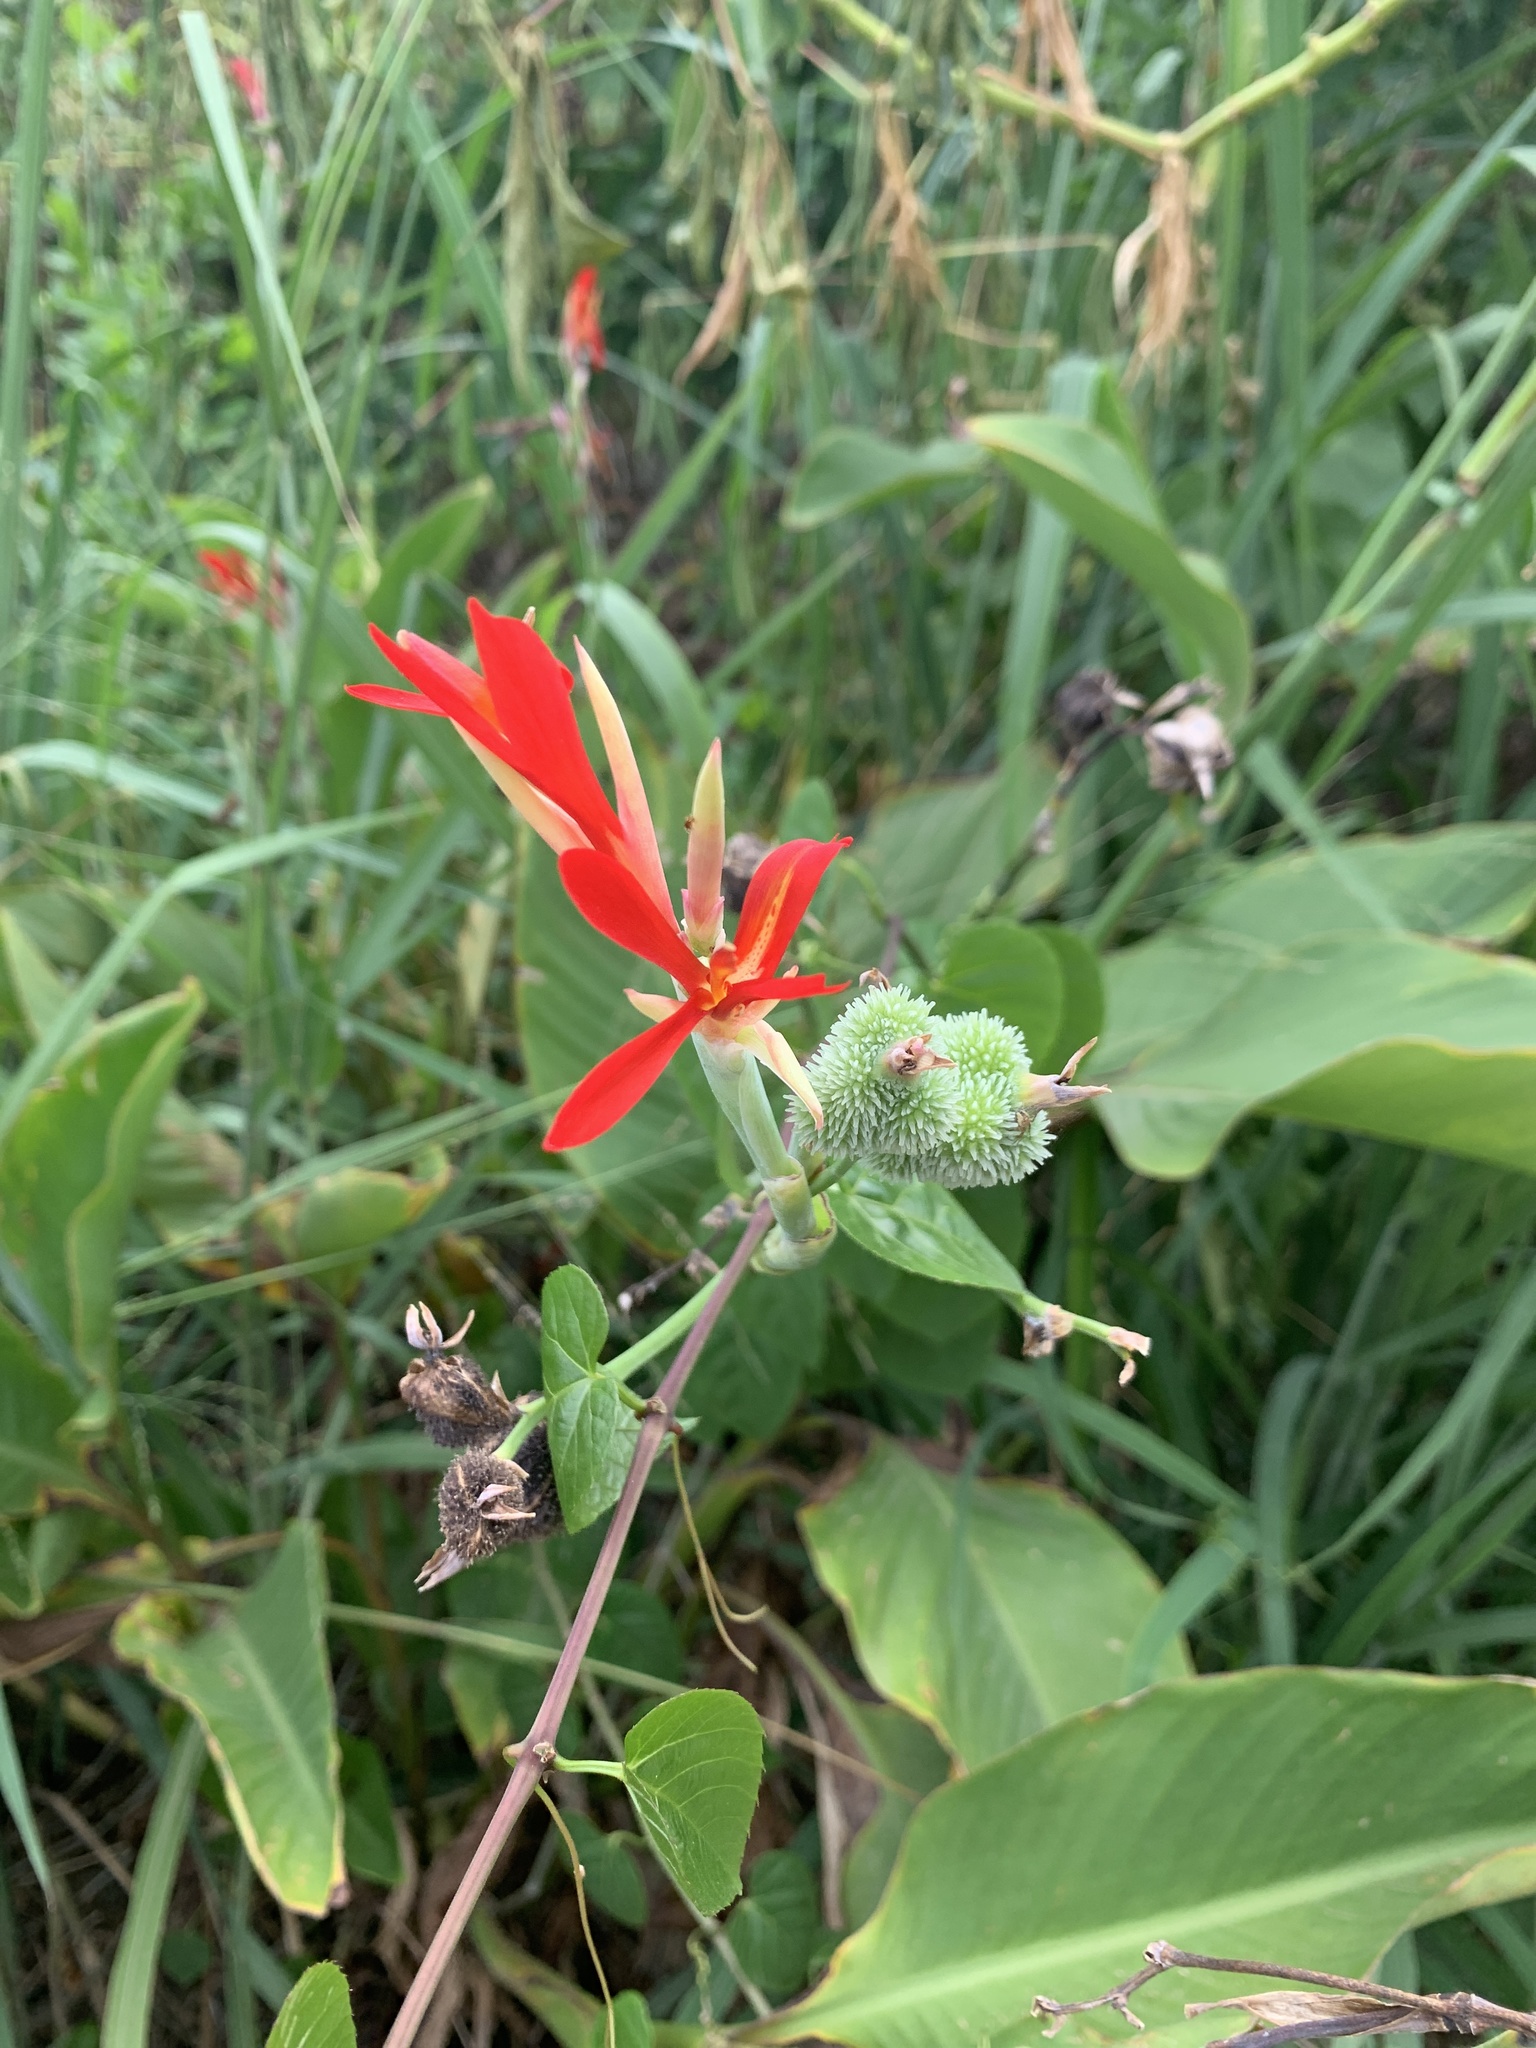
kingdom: Plantae
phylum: Tracheophyta
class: Liliopsida
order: Zingiberales
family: Cannaceae
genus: Canna
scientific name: Canna indica
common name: Indian shot
